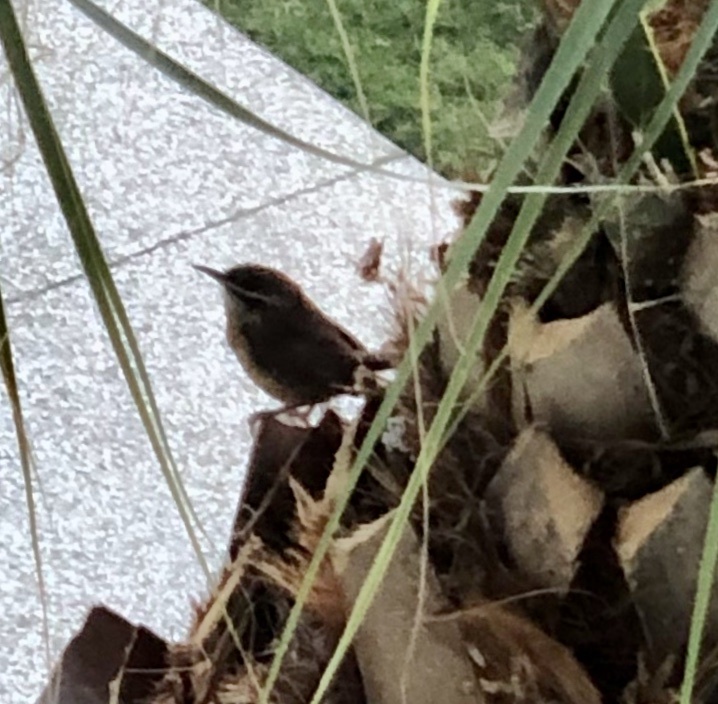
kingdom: Animalia
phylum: Chordata
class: Aves
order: Passeriformes
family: Troglodytidae
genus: Thryothorus
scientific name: Thryothorus ludovicianus
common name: Carolina wren
